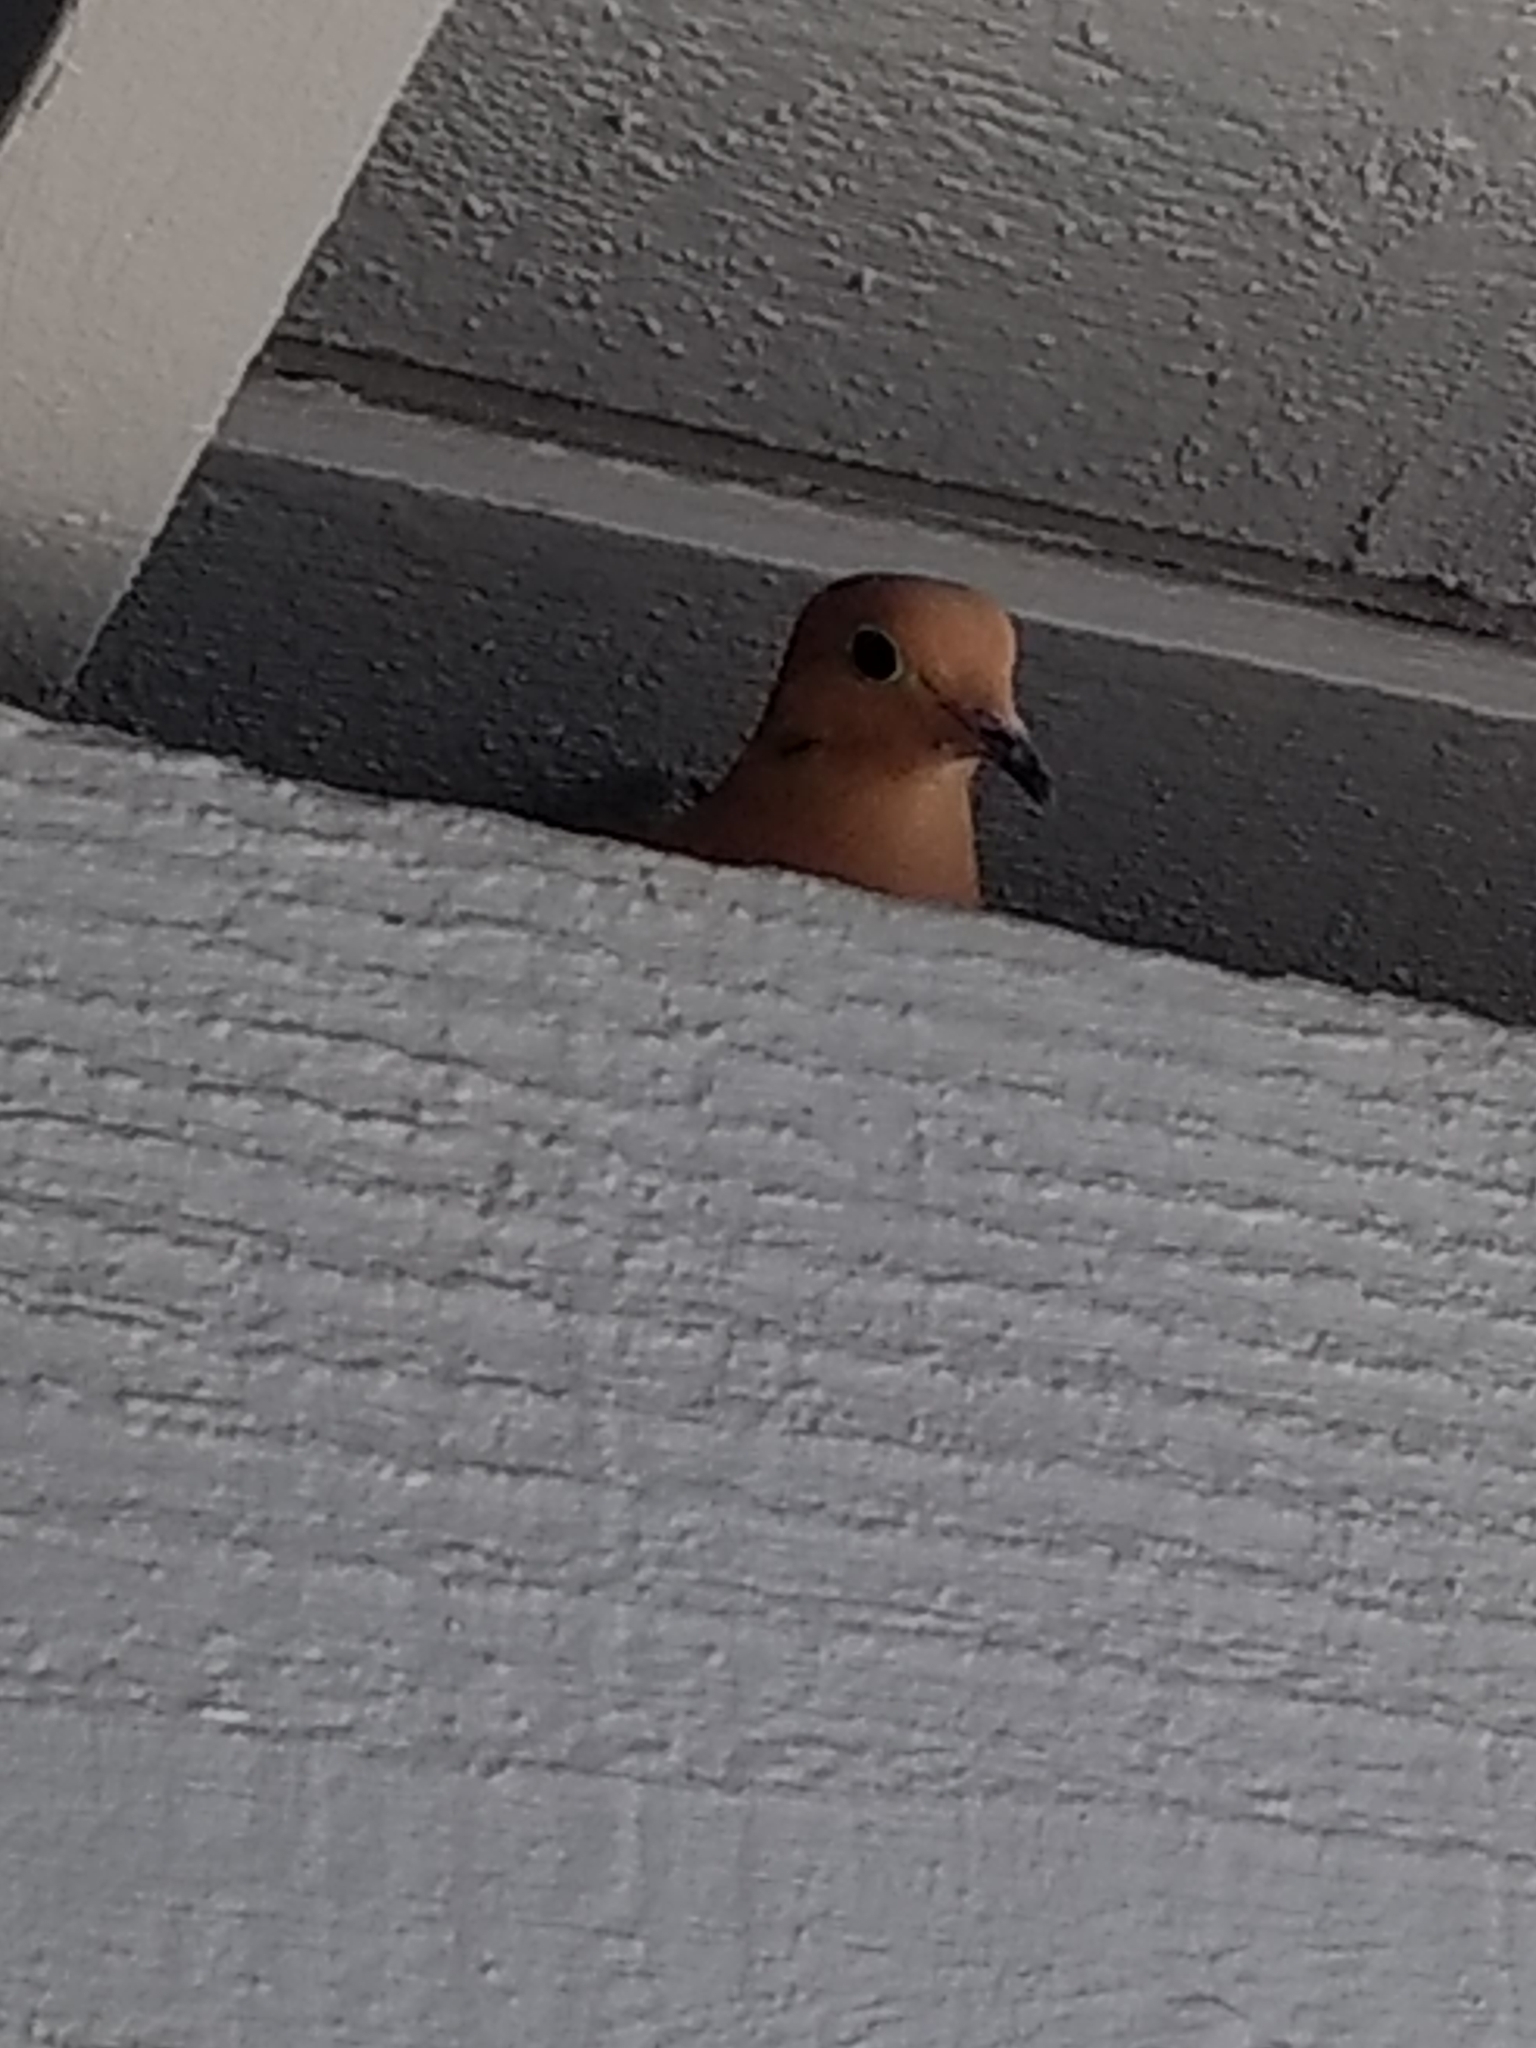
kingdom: Animalia
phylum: Chordata
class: Aves
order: Columbiformes
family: Columbidae
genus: Zenaida
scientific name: Zenaida macroura
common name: Mourning dove
